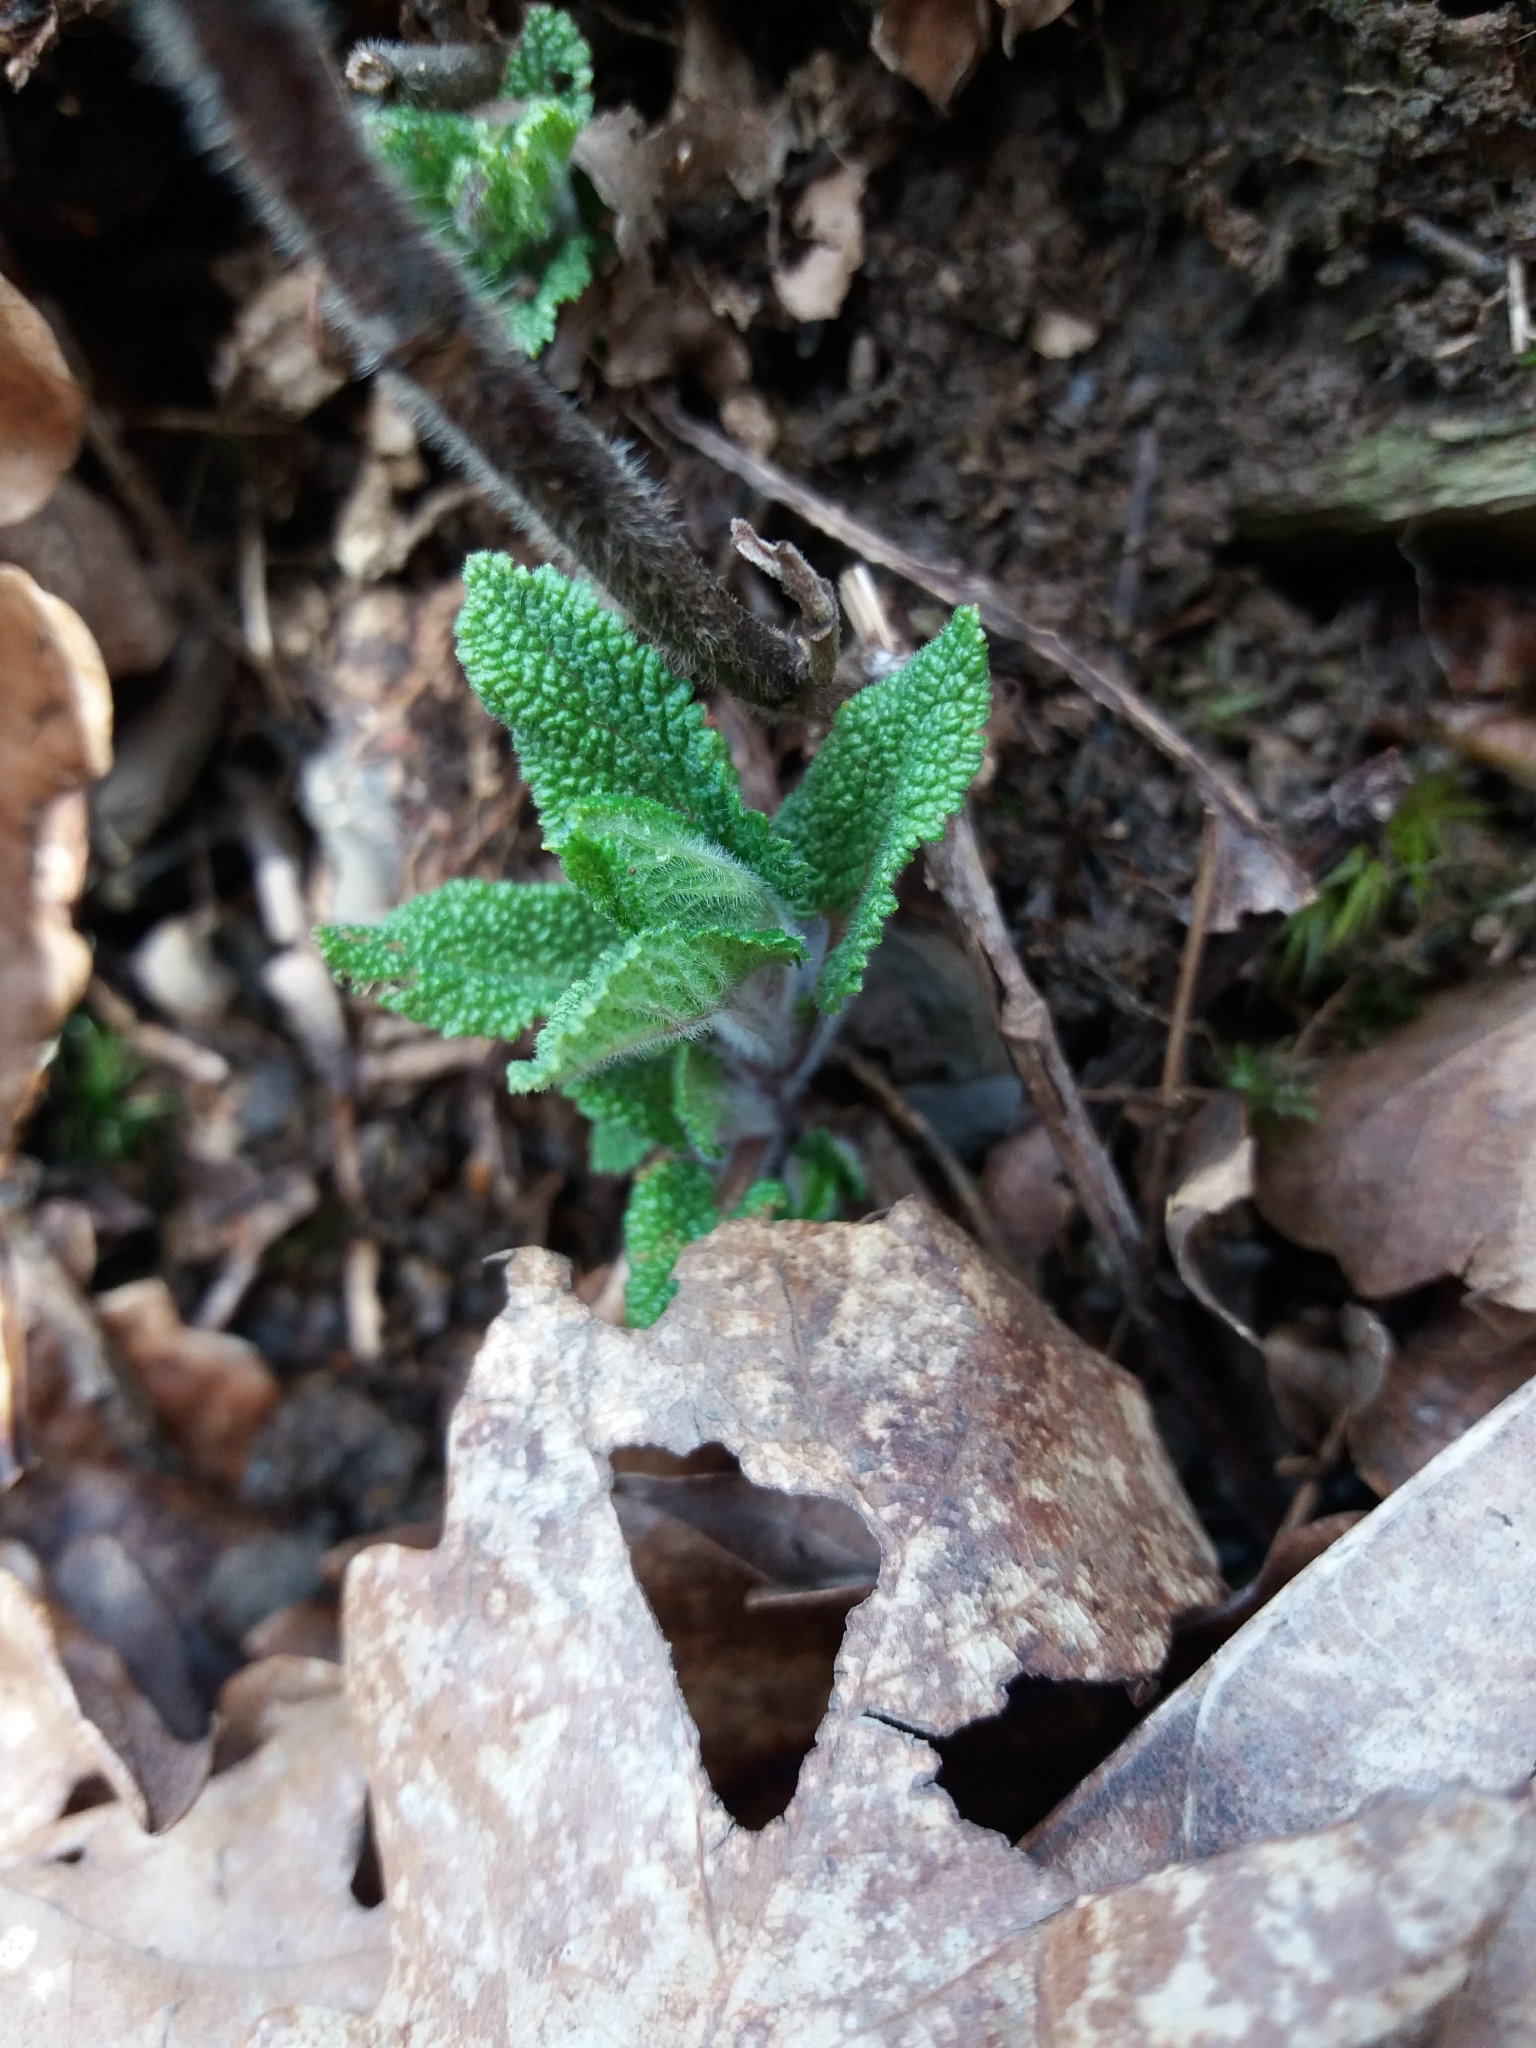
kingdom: Plantae
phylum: Tracheophyta
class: Magnoliopsida
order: Lamiales
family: Lamiaceae
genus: Teucrium
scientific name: Teucrium scorodonia
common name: Woodland germander
